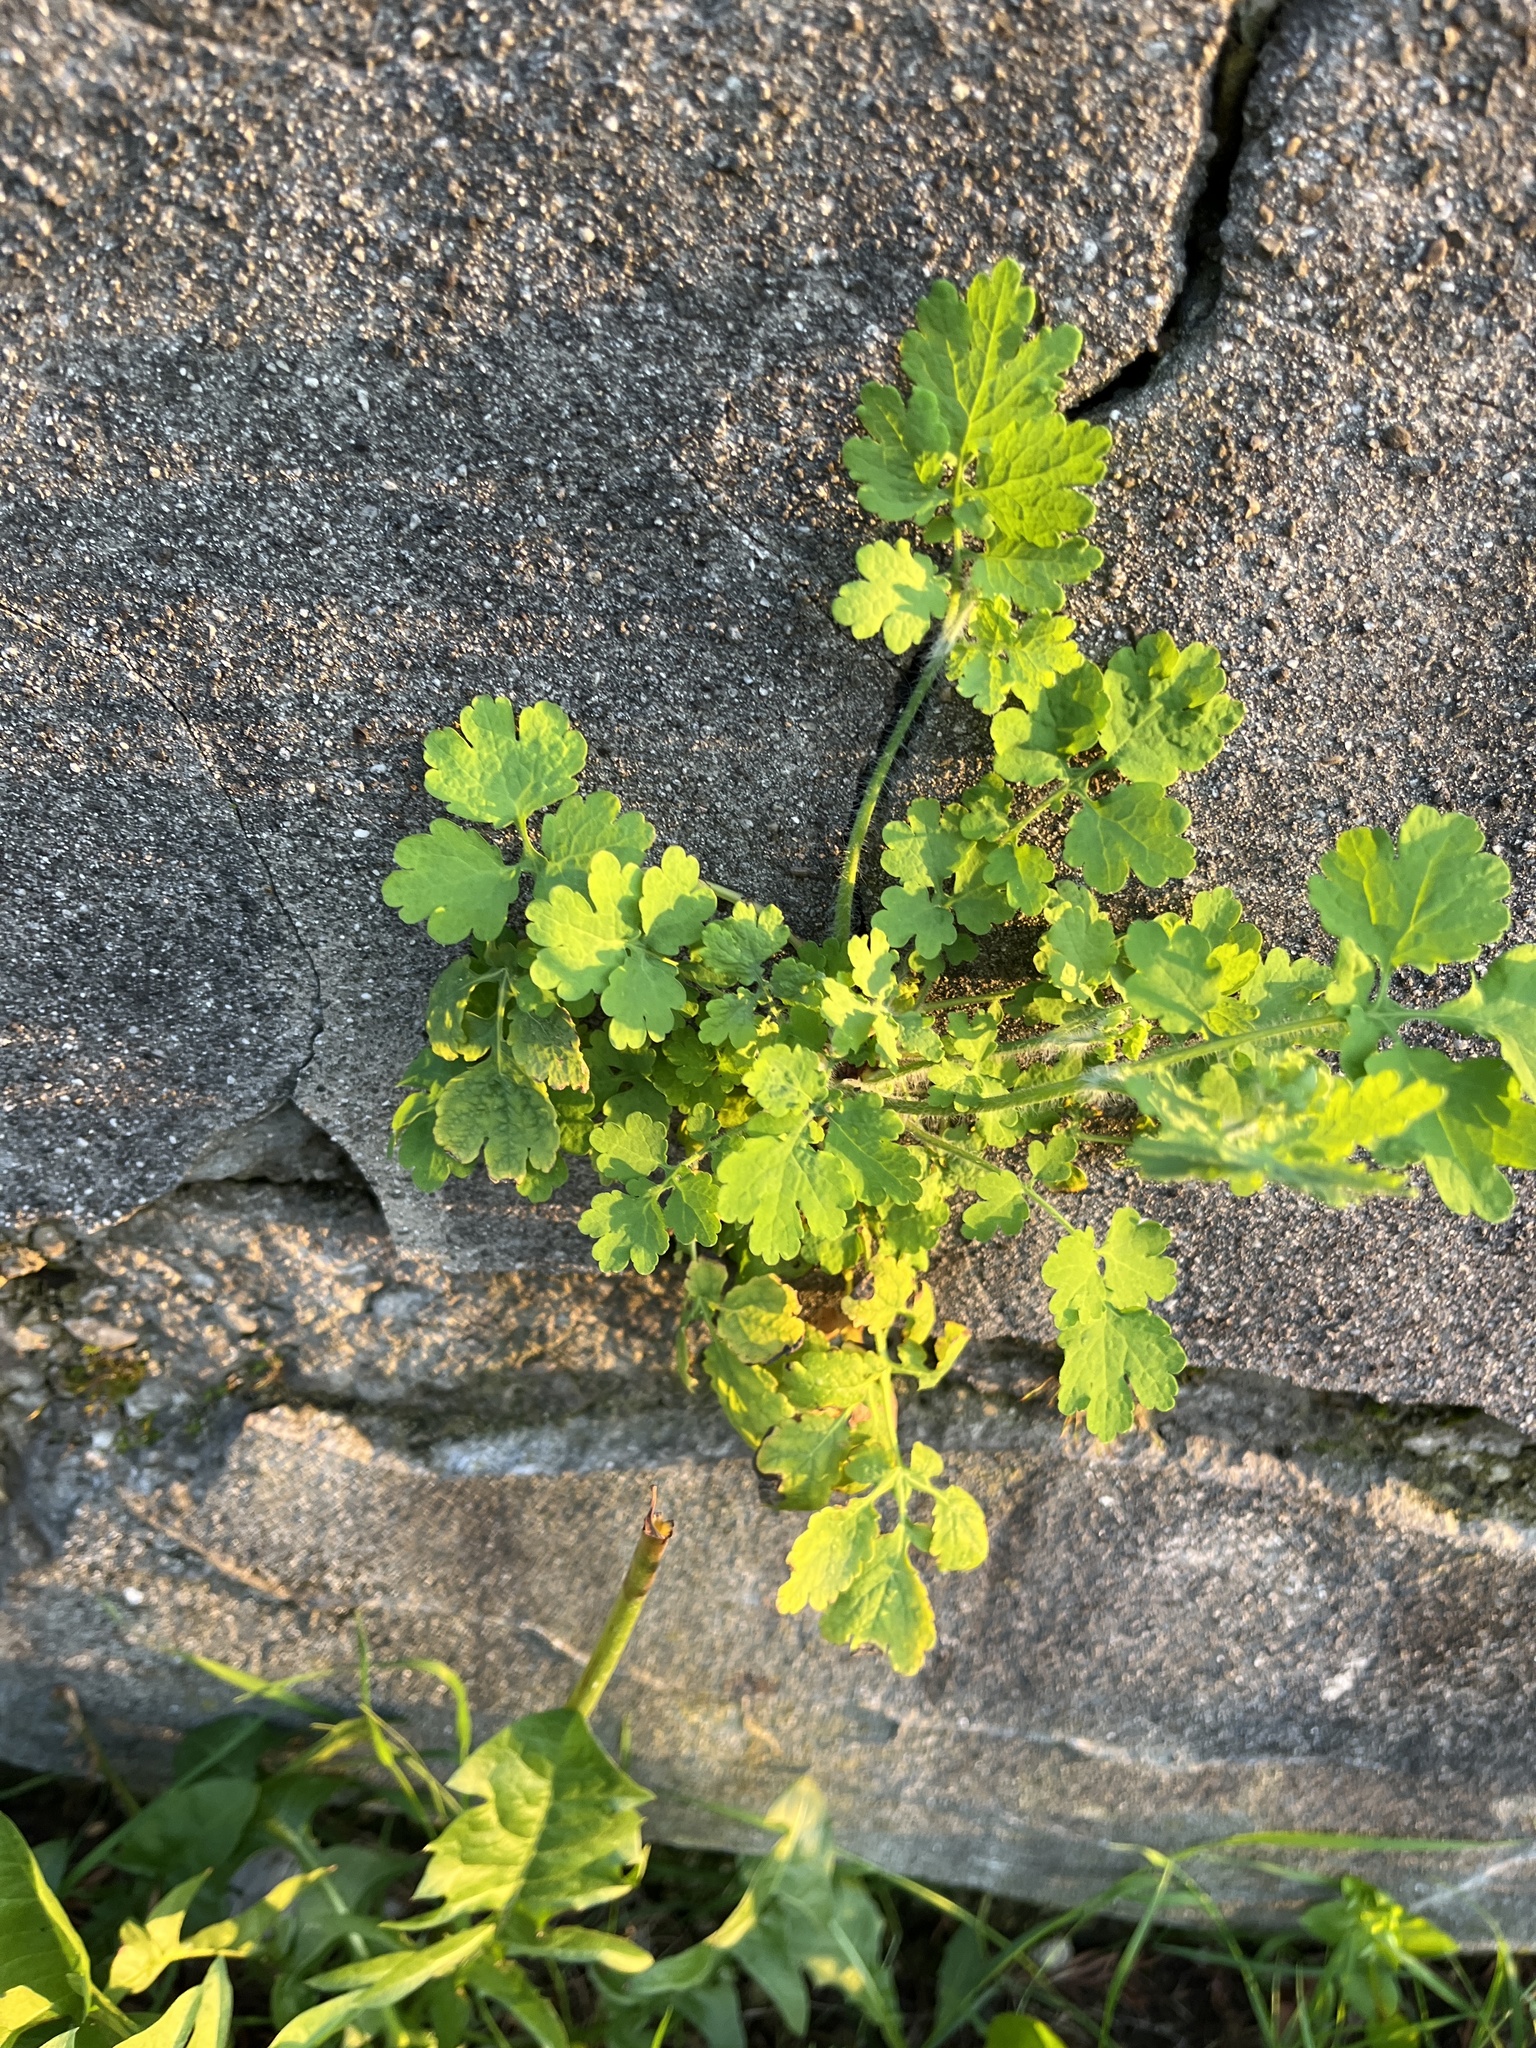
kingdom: Plantae
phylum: Tracheophyta
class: Magnoliopsida
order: Ranunculales
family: Papaveraceae
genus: Chelidonium
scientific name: Chelidonium majus
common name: Greater celandine
